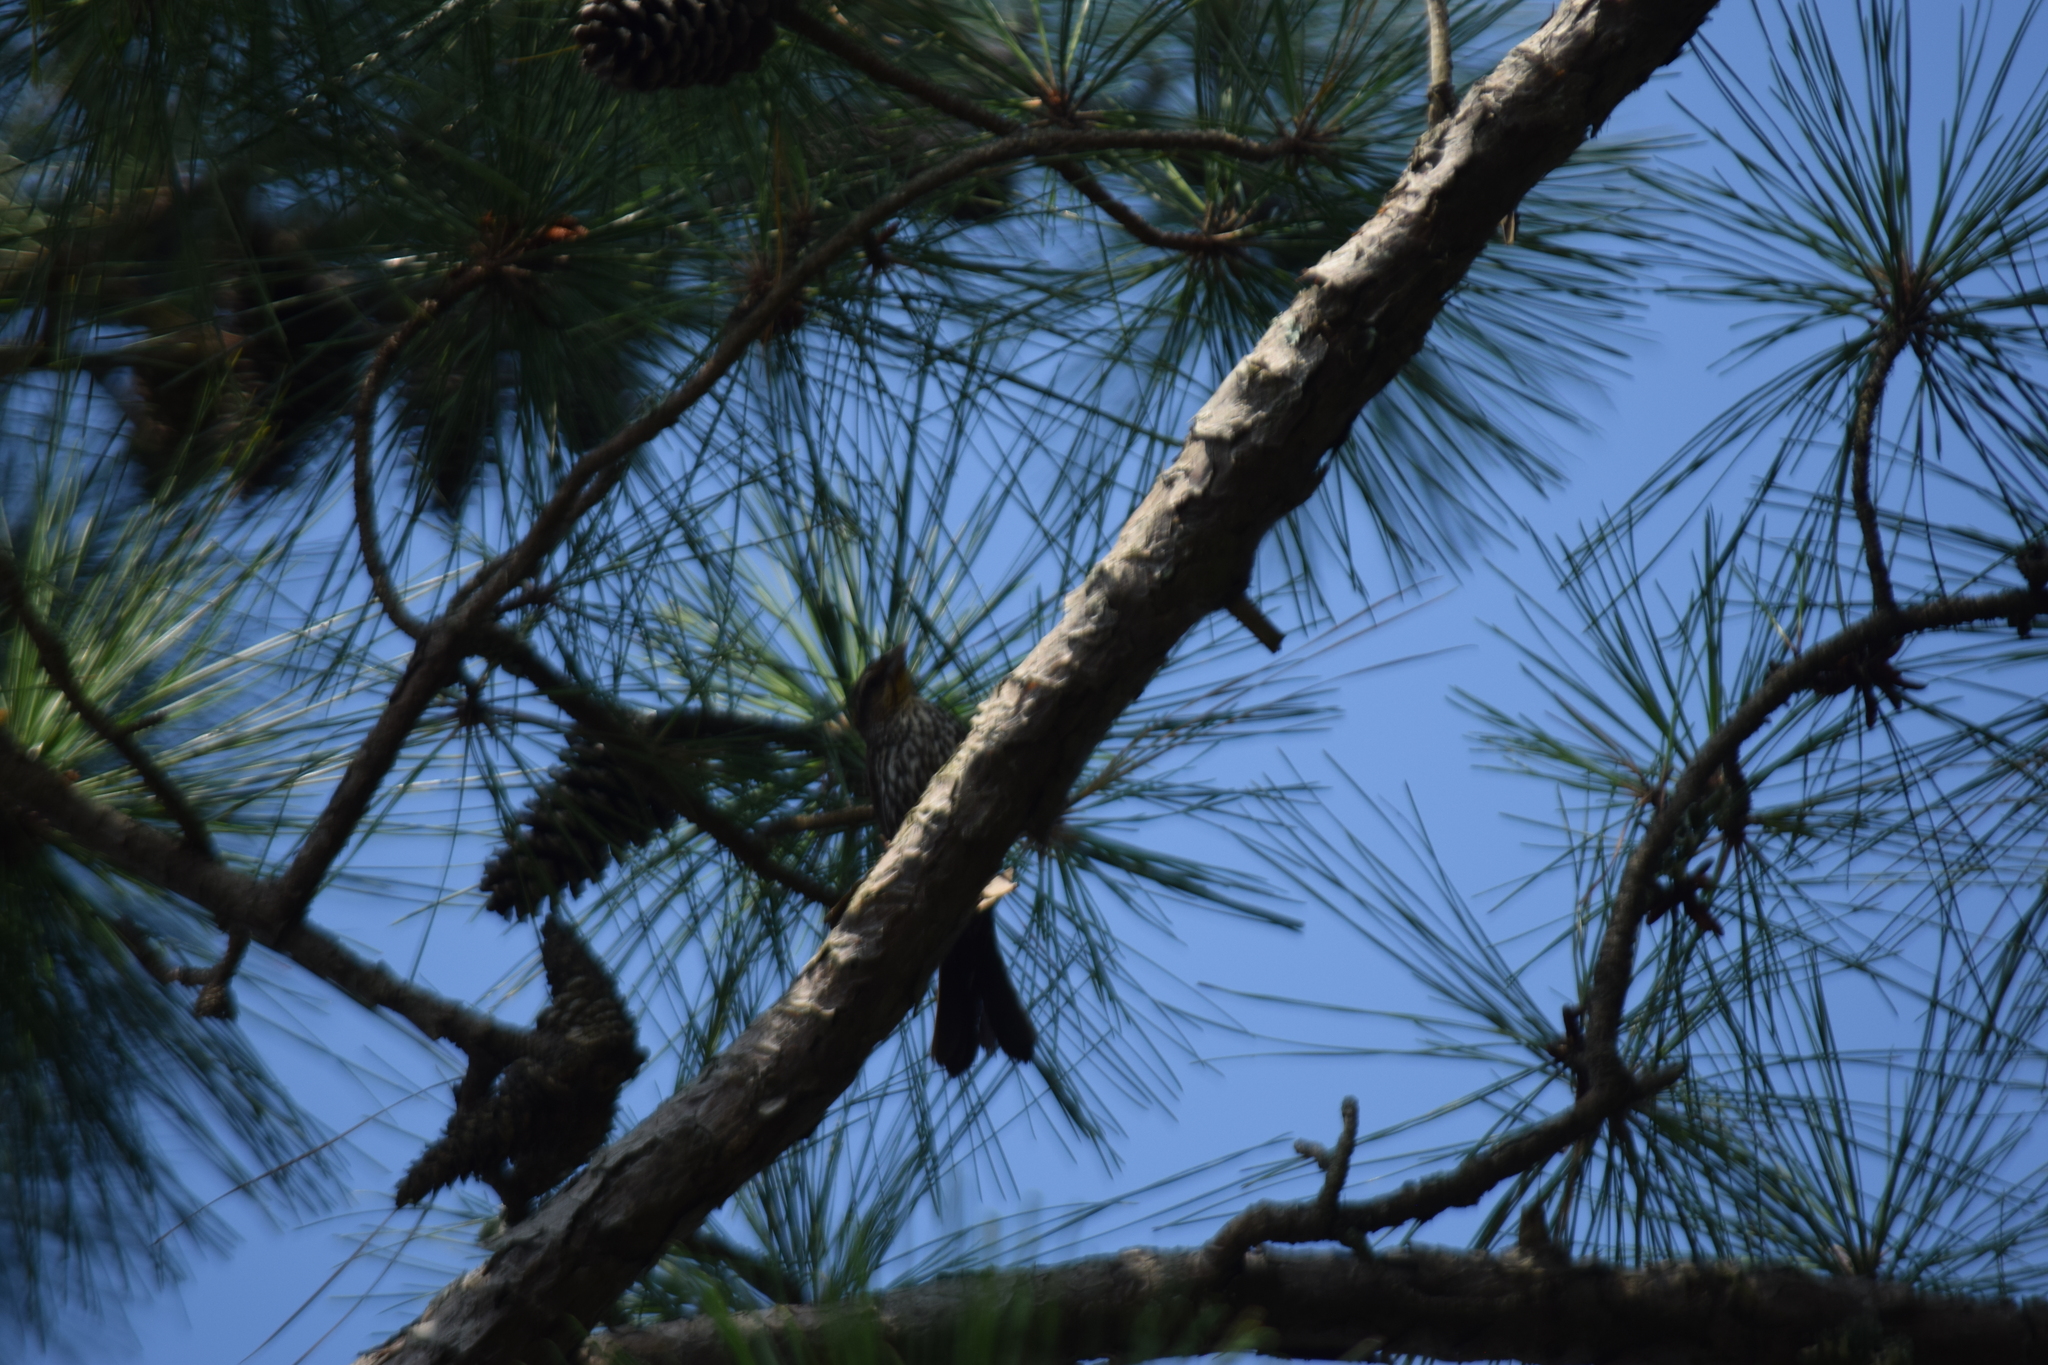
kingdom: Animalia
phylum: Chordata
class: Aves
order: Passeriformes
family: Icteridae
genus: Agelaius
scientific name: Agelaius phoeniceus
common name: Red-winged blackbird
